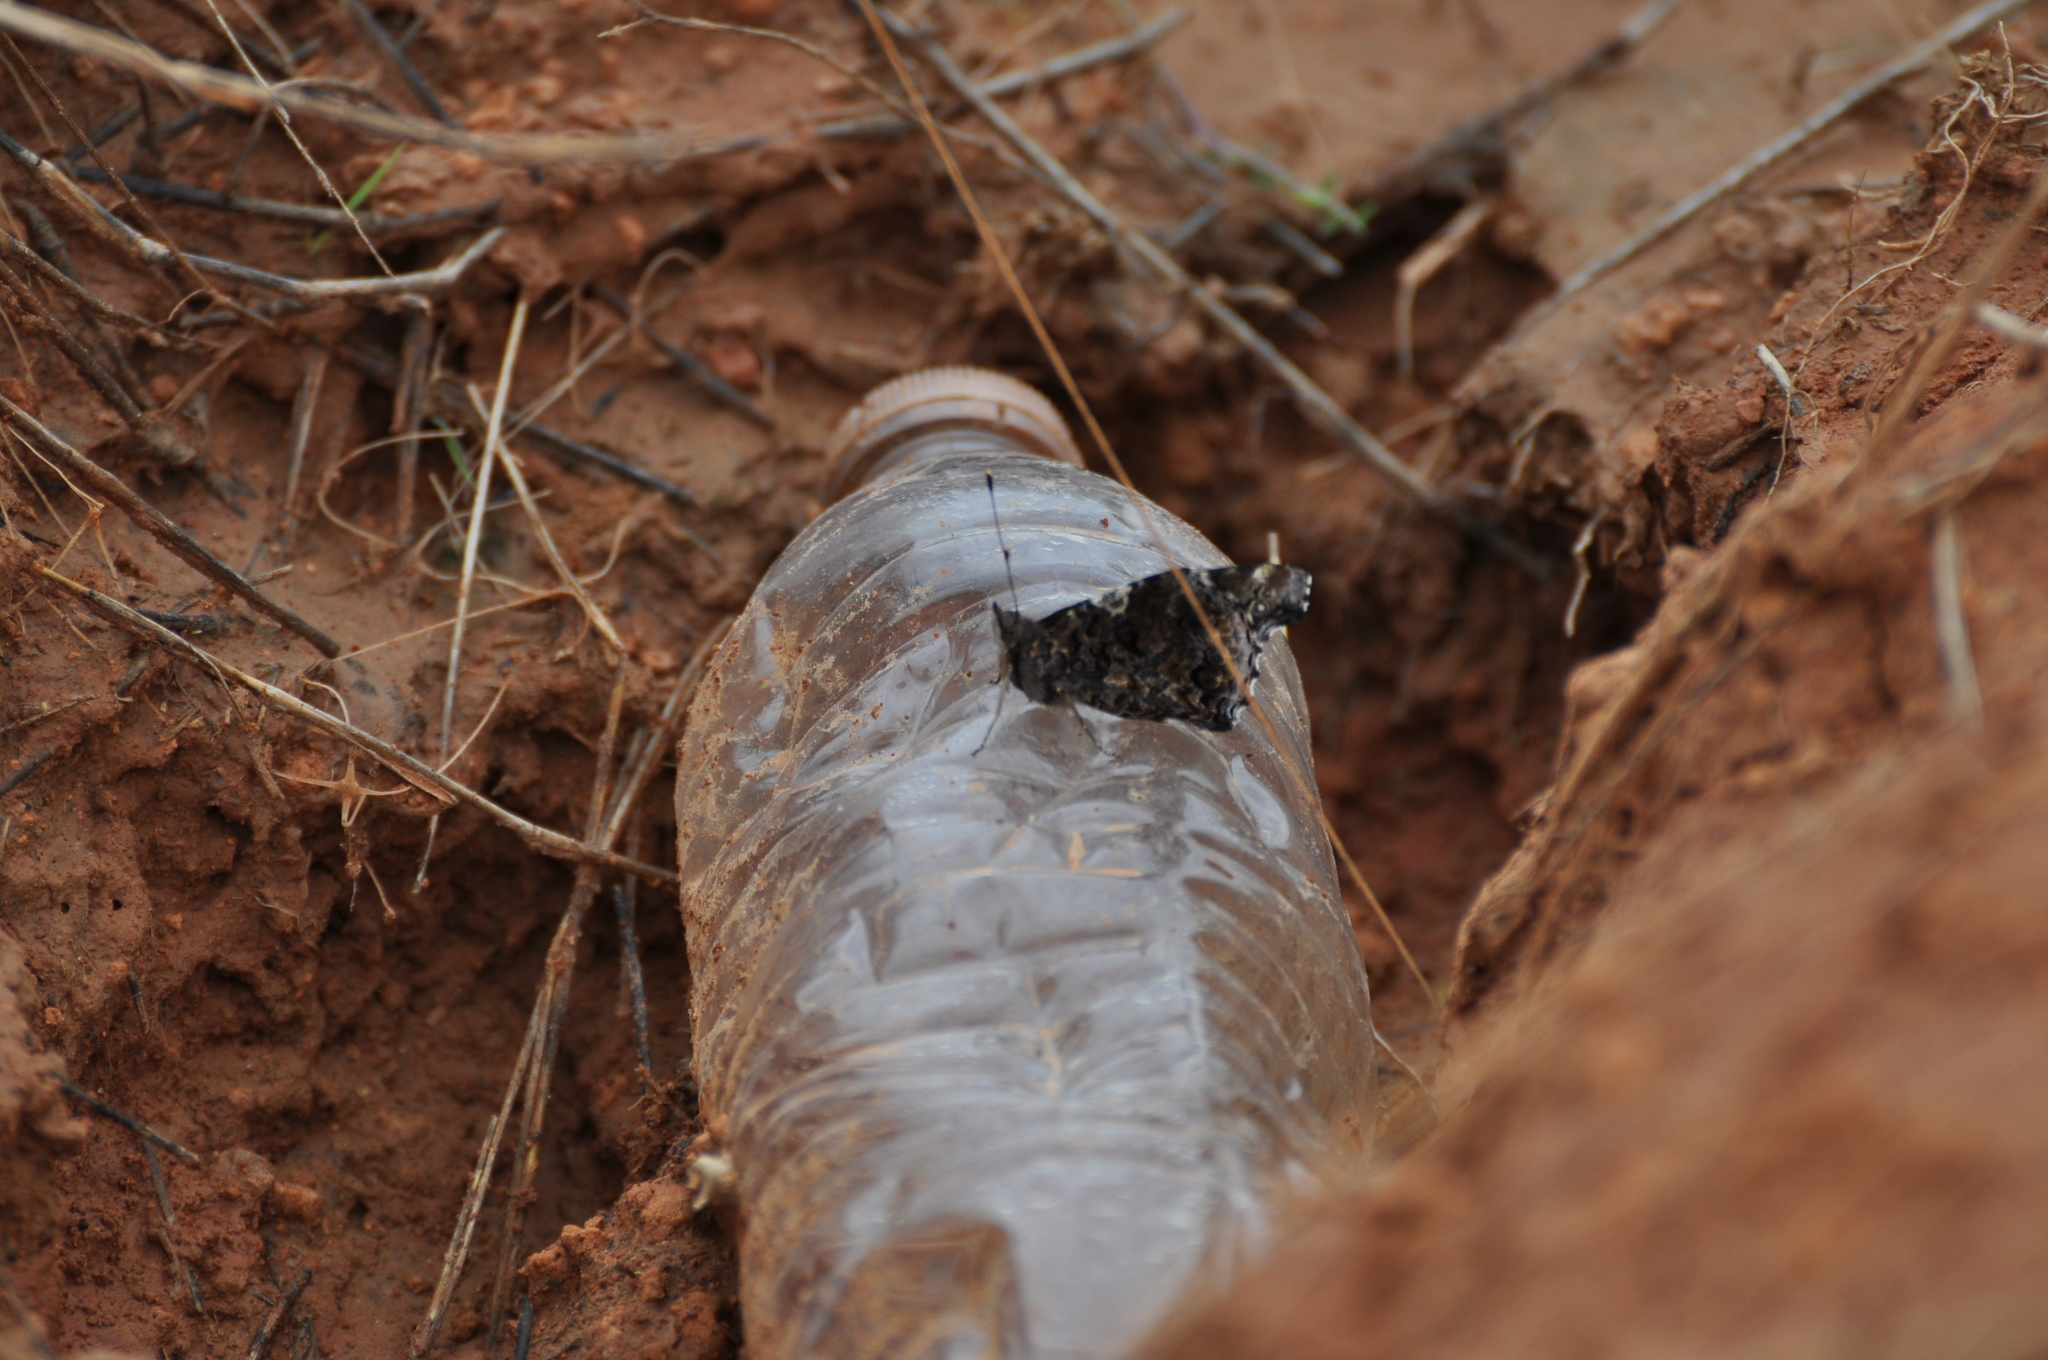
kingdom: Animalia
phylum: Arthropoda
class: Insecta
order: Lepidoptera
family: Nymphalidae
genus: Vanessa
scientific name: Vanessa atalanta
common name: Red admiral
